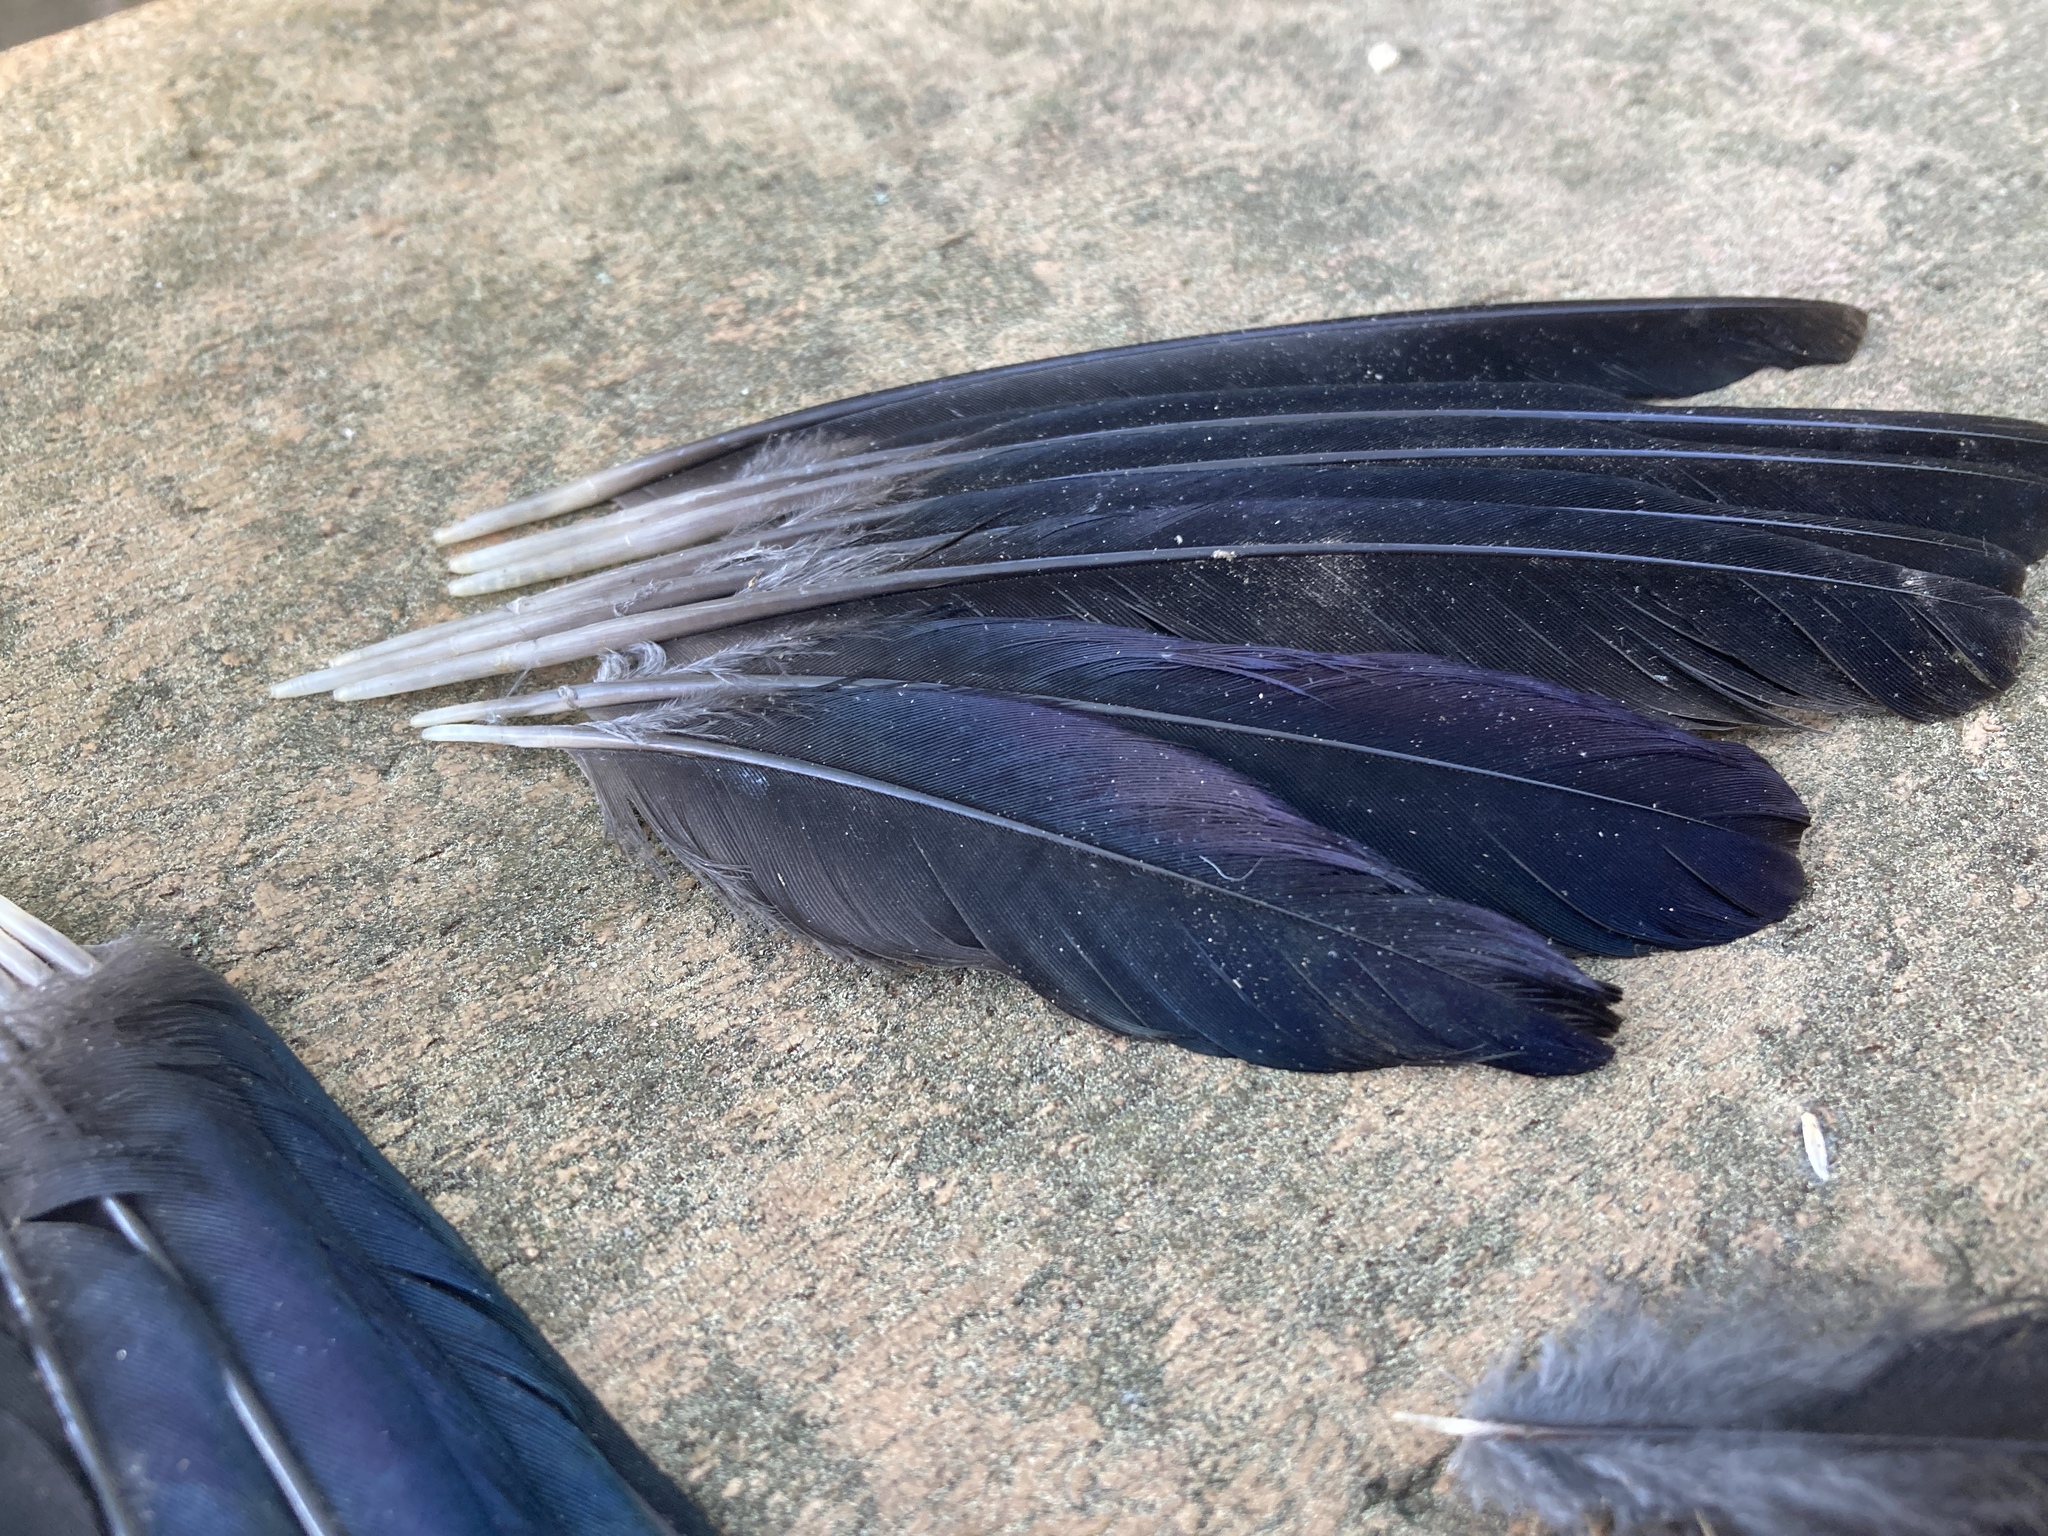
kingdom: Animalia
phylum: Chordata
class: Aves
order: Passeriformes
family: Icteridae
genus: Quiscalus
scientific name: Quiscalus quiscula
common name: Common grackle
